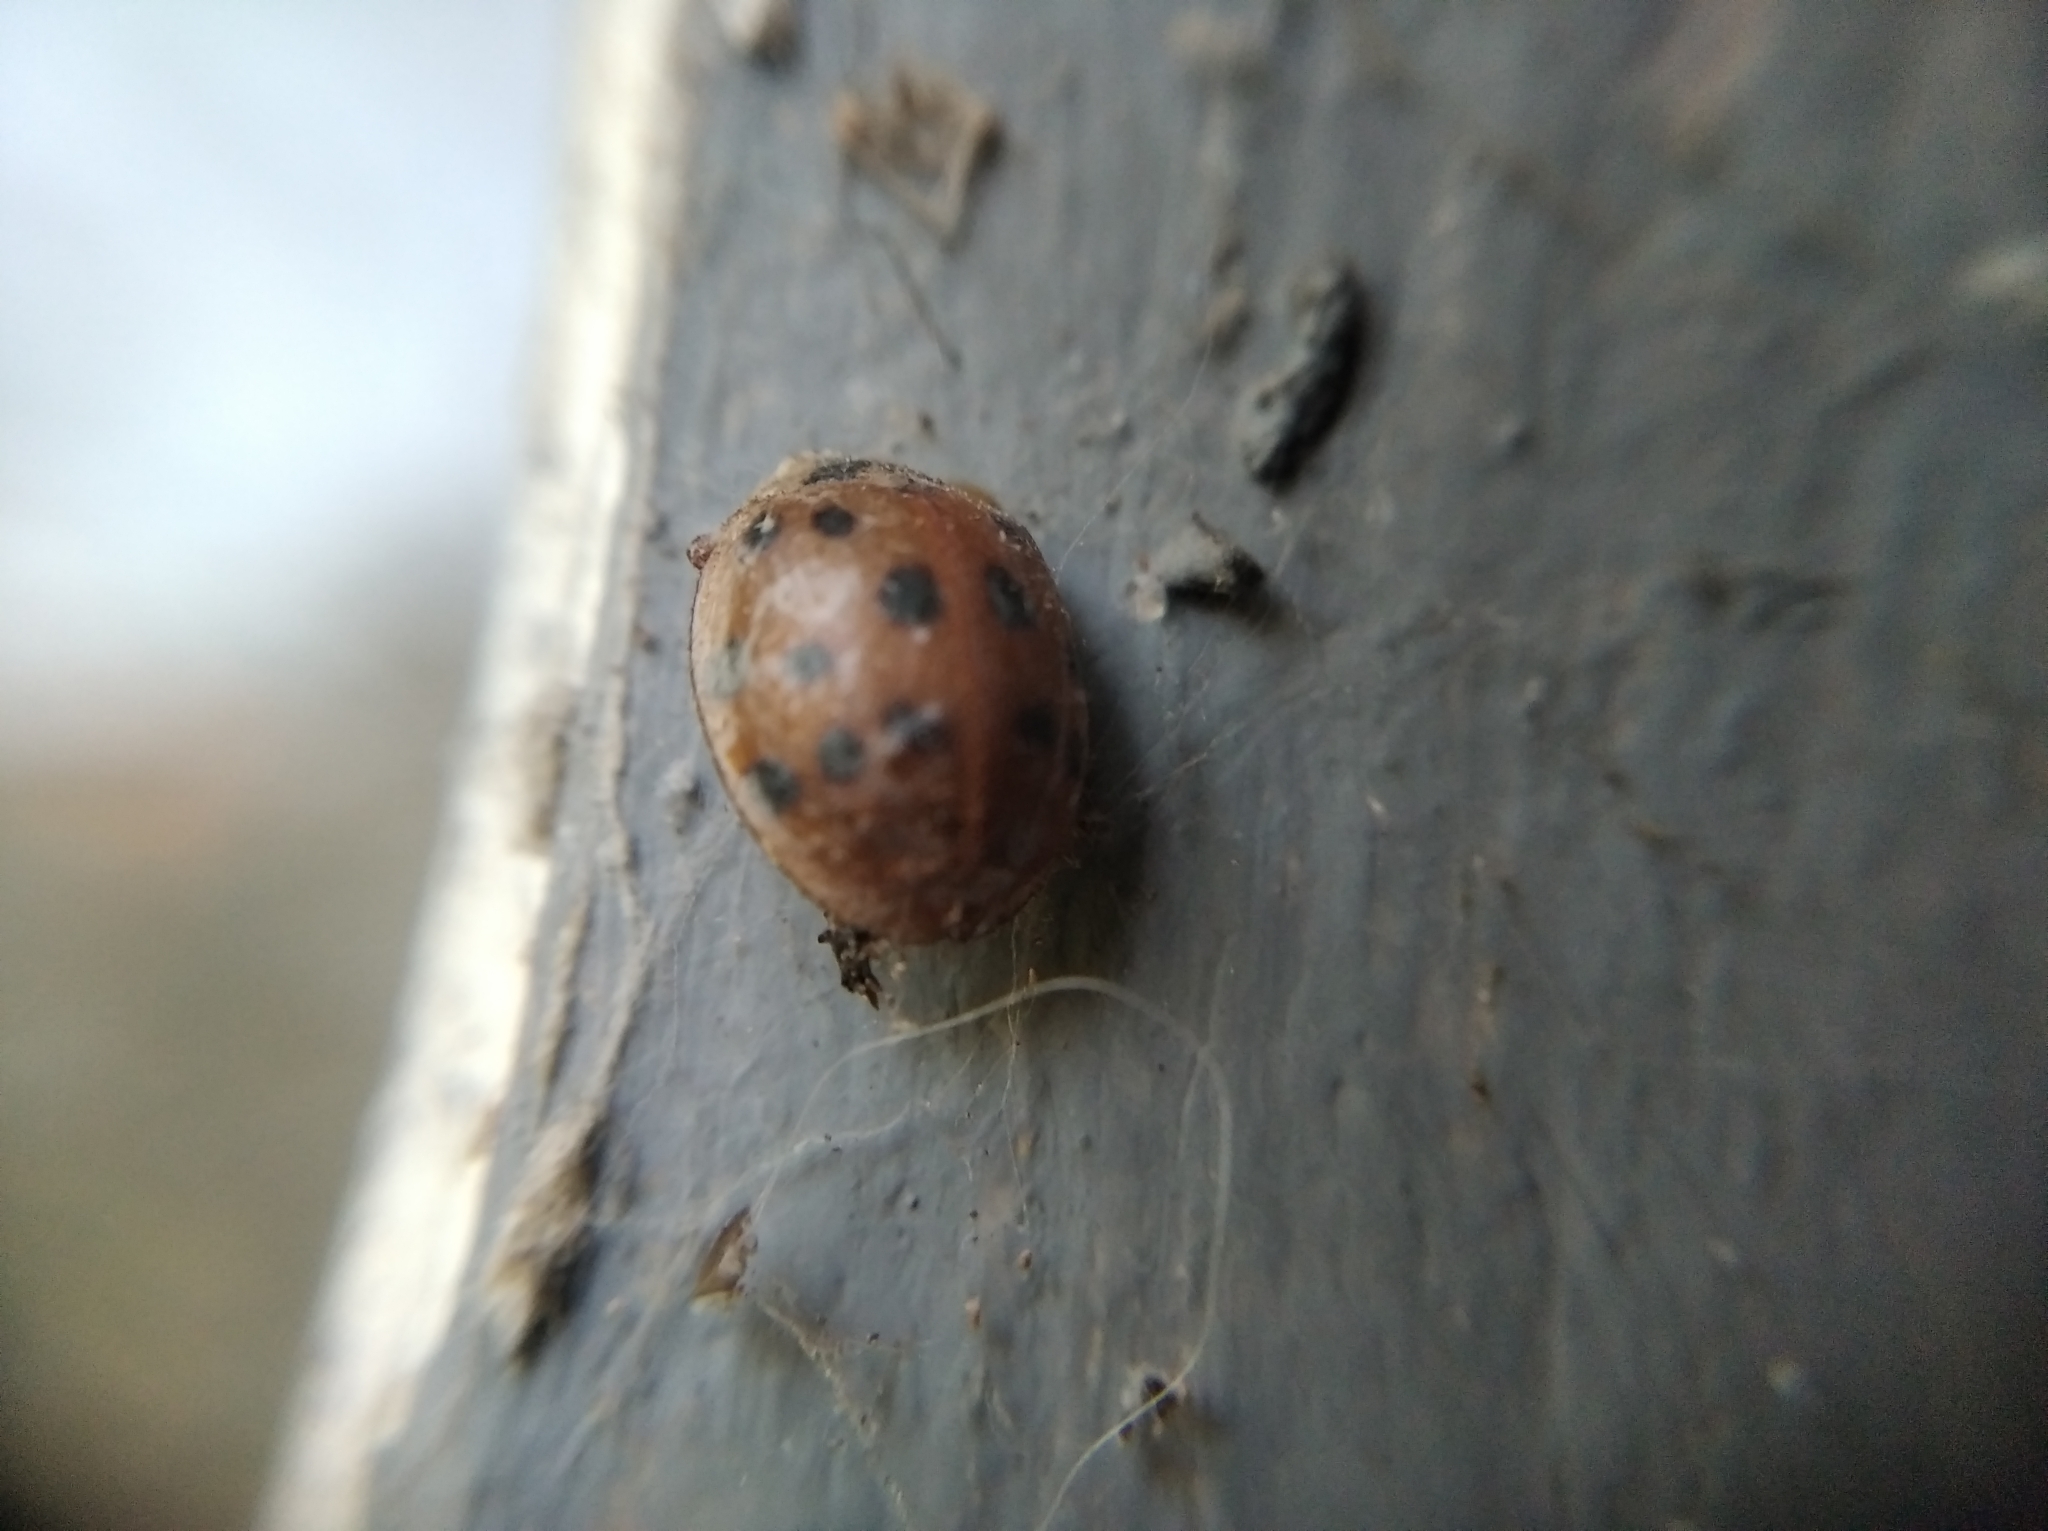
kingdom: Animalia
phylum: Arthropoda
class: Insecta
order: Coleoptera
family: Coccinellidae
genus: Harmonia
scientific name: Harmonia axyridis
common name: Harlequin ladybird
